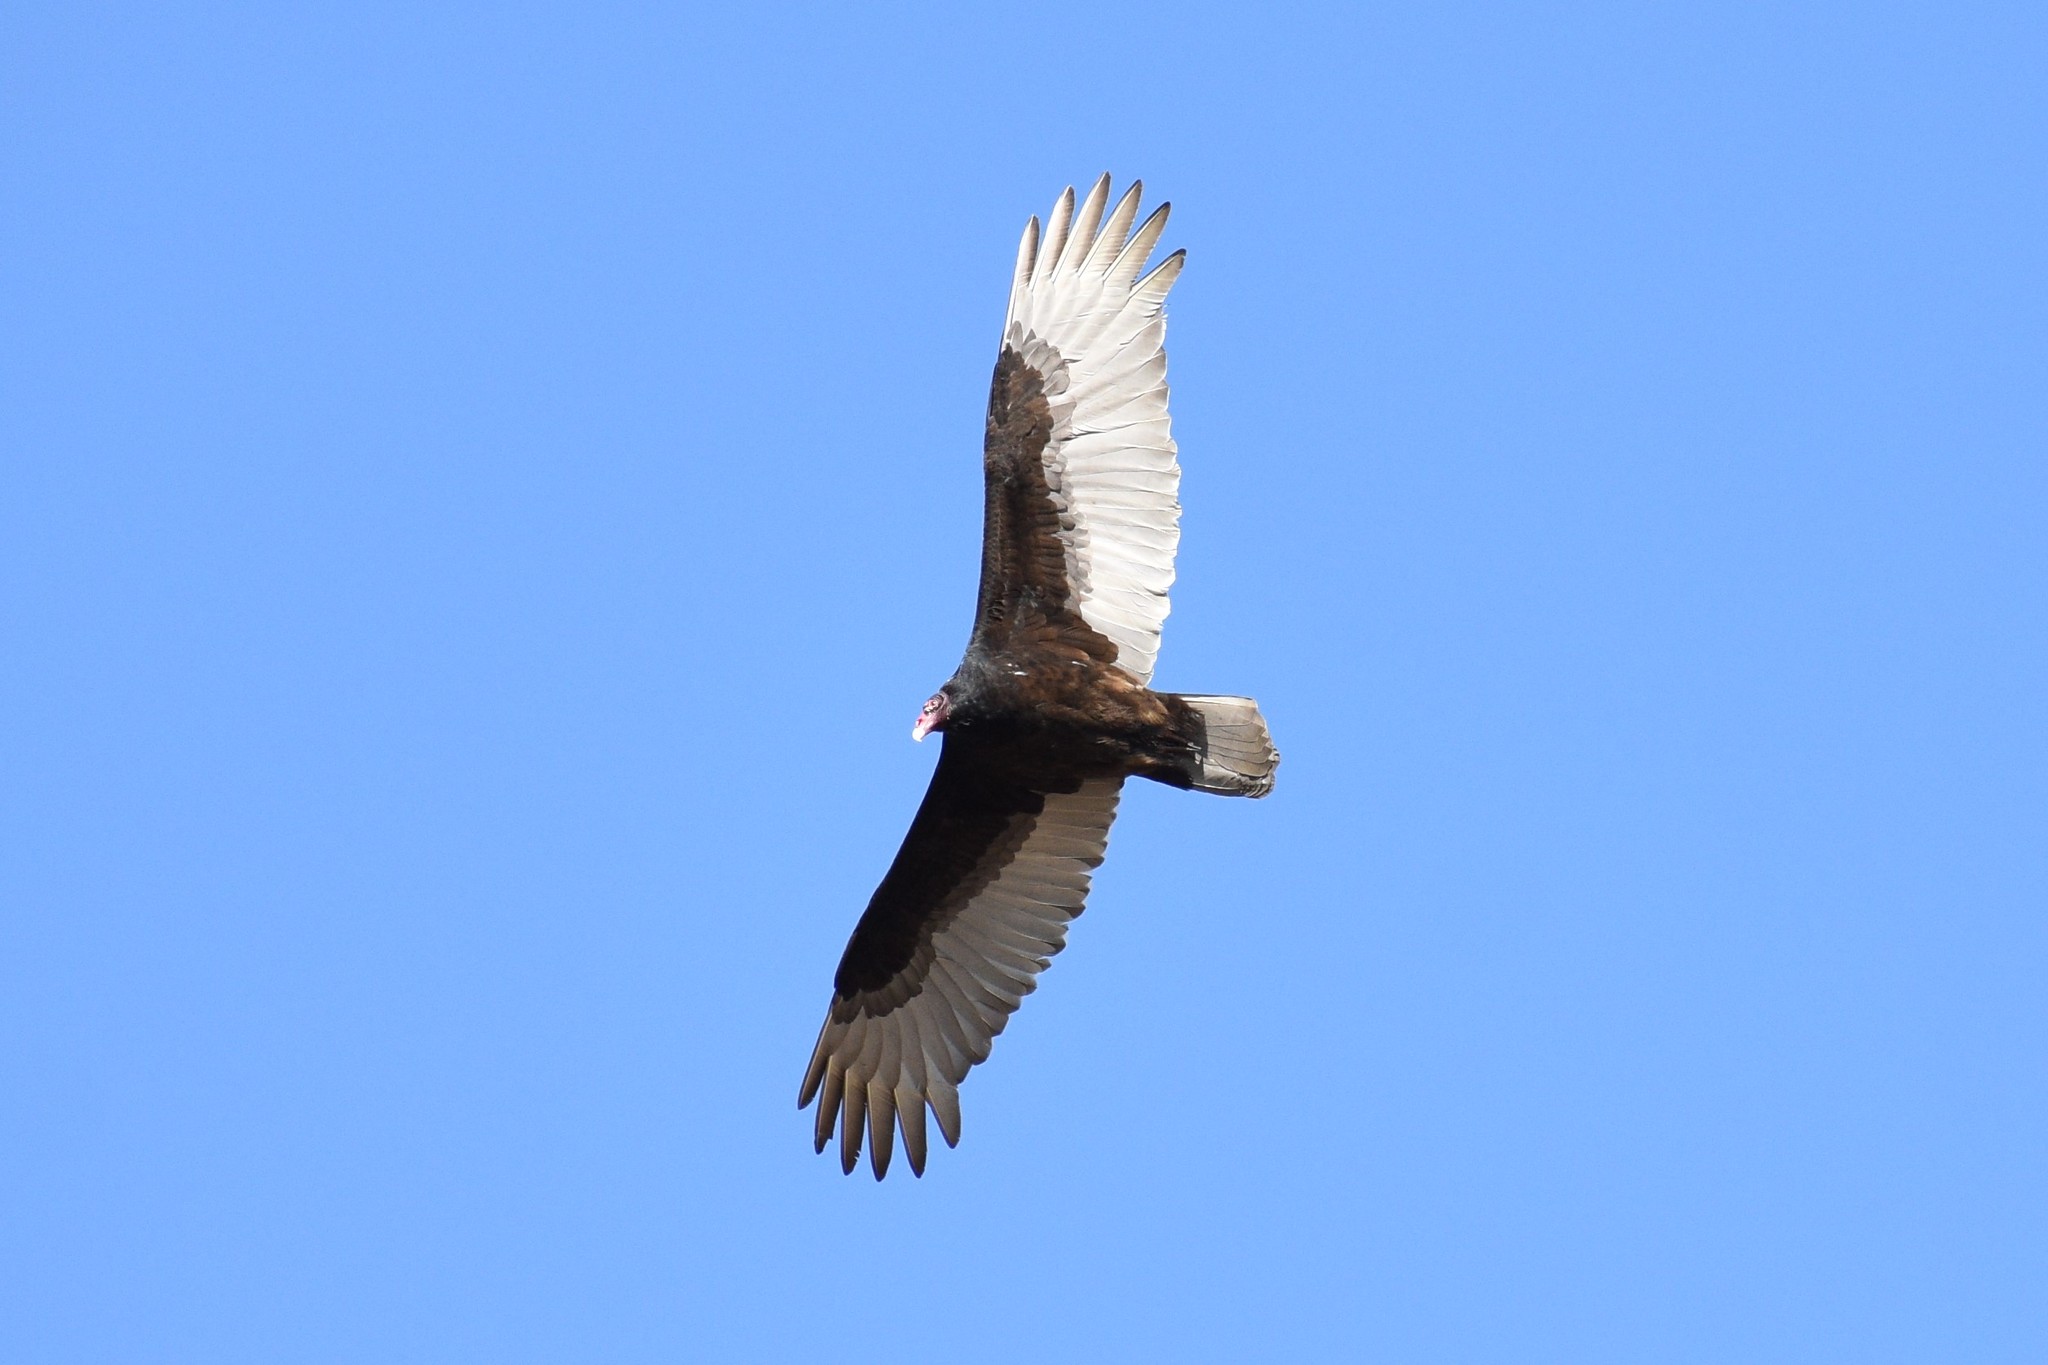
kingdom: Animalia
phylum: Chordata
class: Aves
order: Accipitriformes
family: Cathartidae
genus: Cathartes
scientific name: Cathartes aura
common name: Turkey vulture
